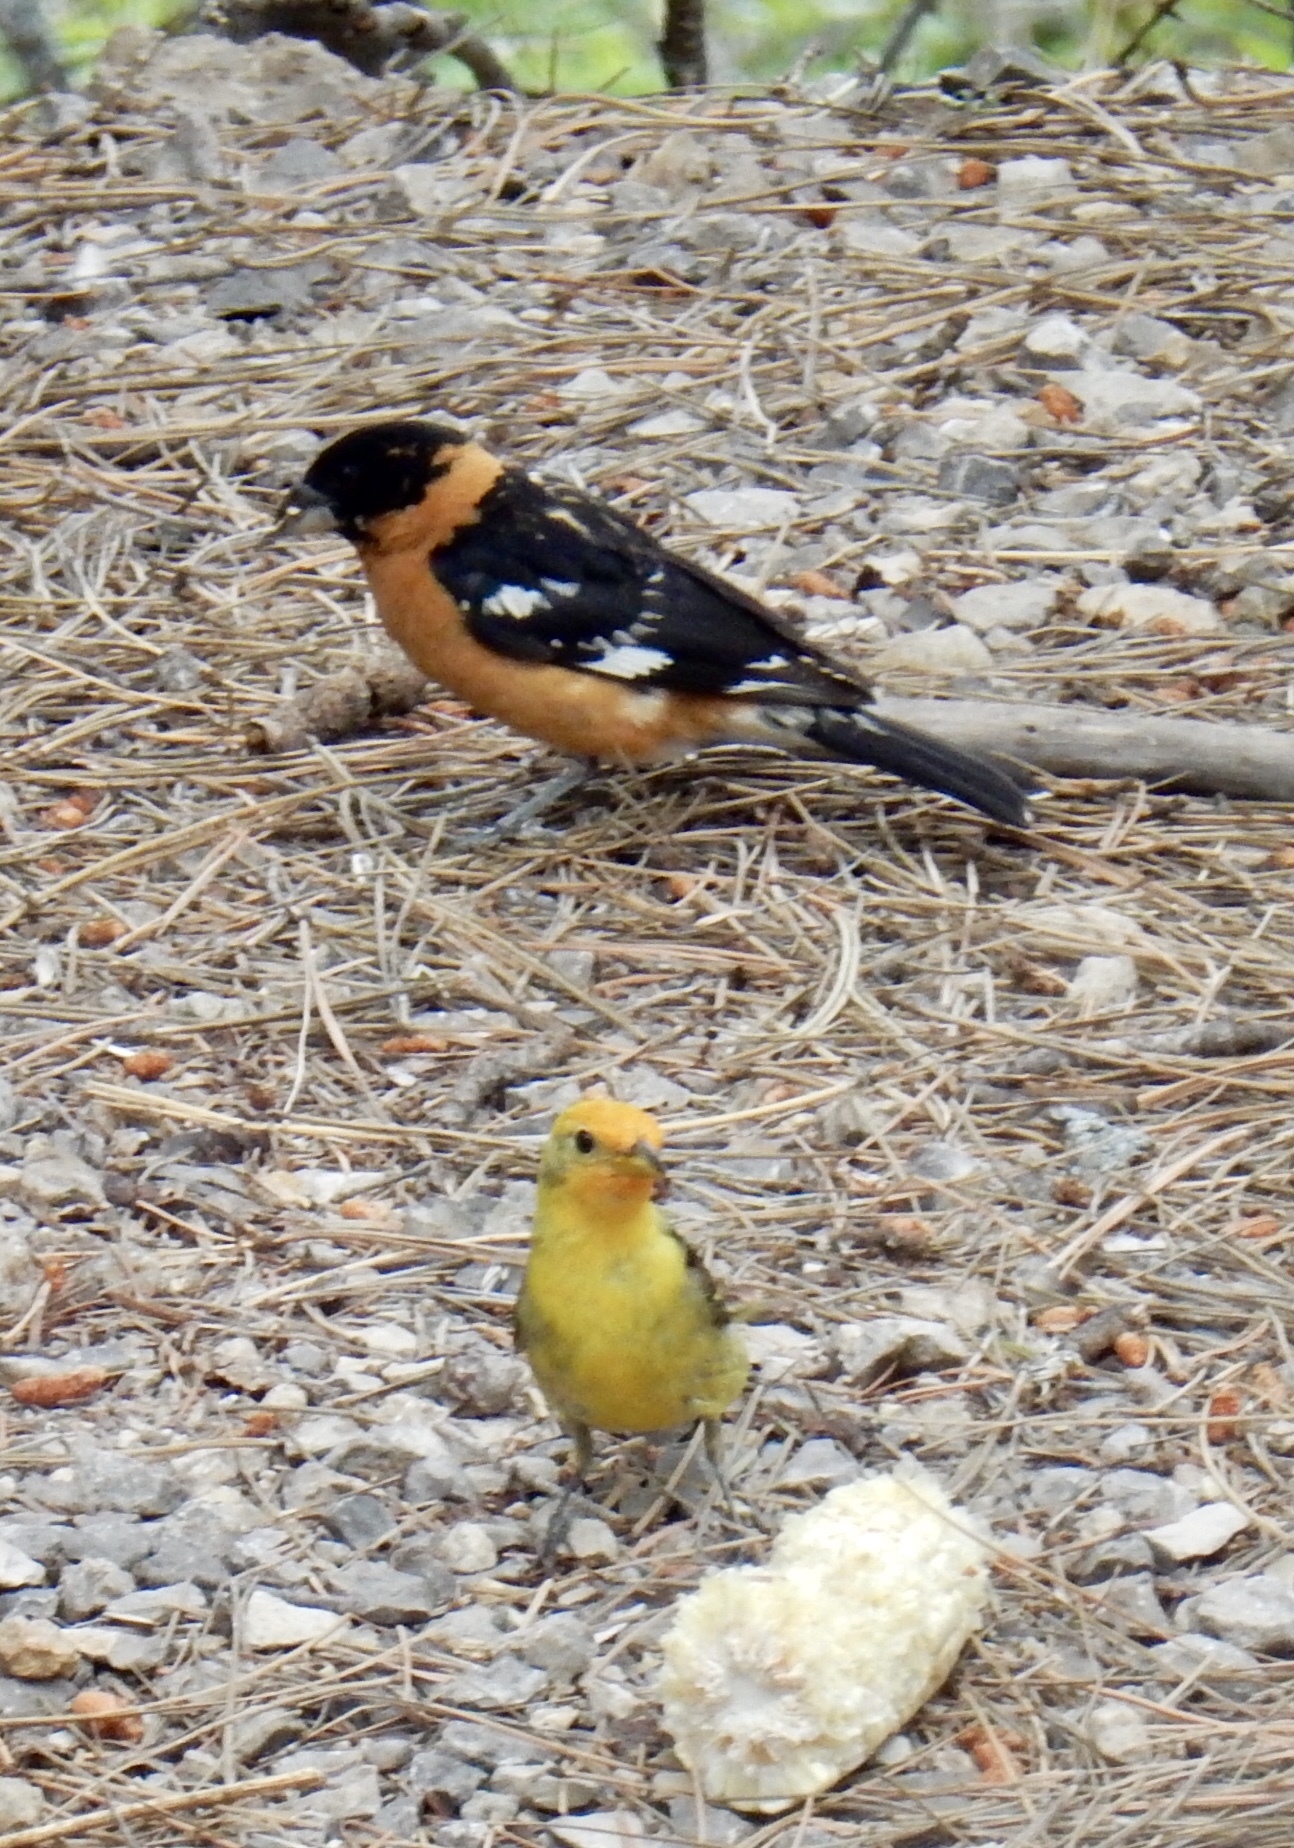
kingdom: Animalia
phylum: Chordata
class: Aves
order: Passeriformes
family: Cardinalidae
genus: Piranga
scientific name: Piranga ludoviciana
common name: Western tanager
